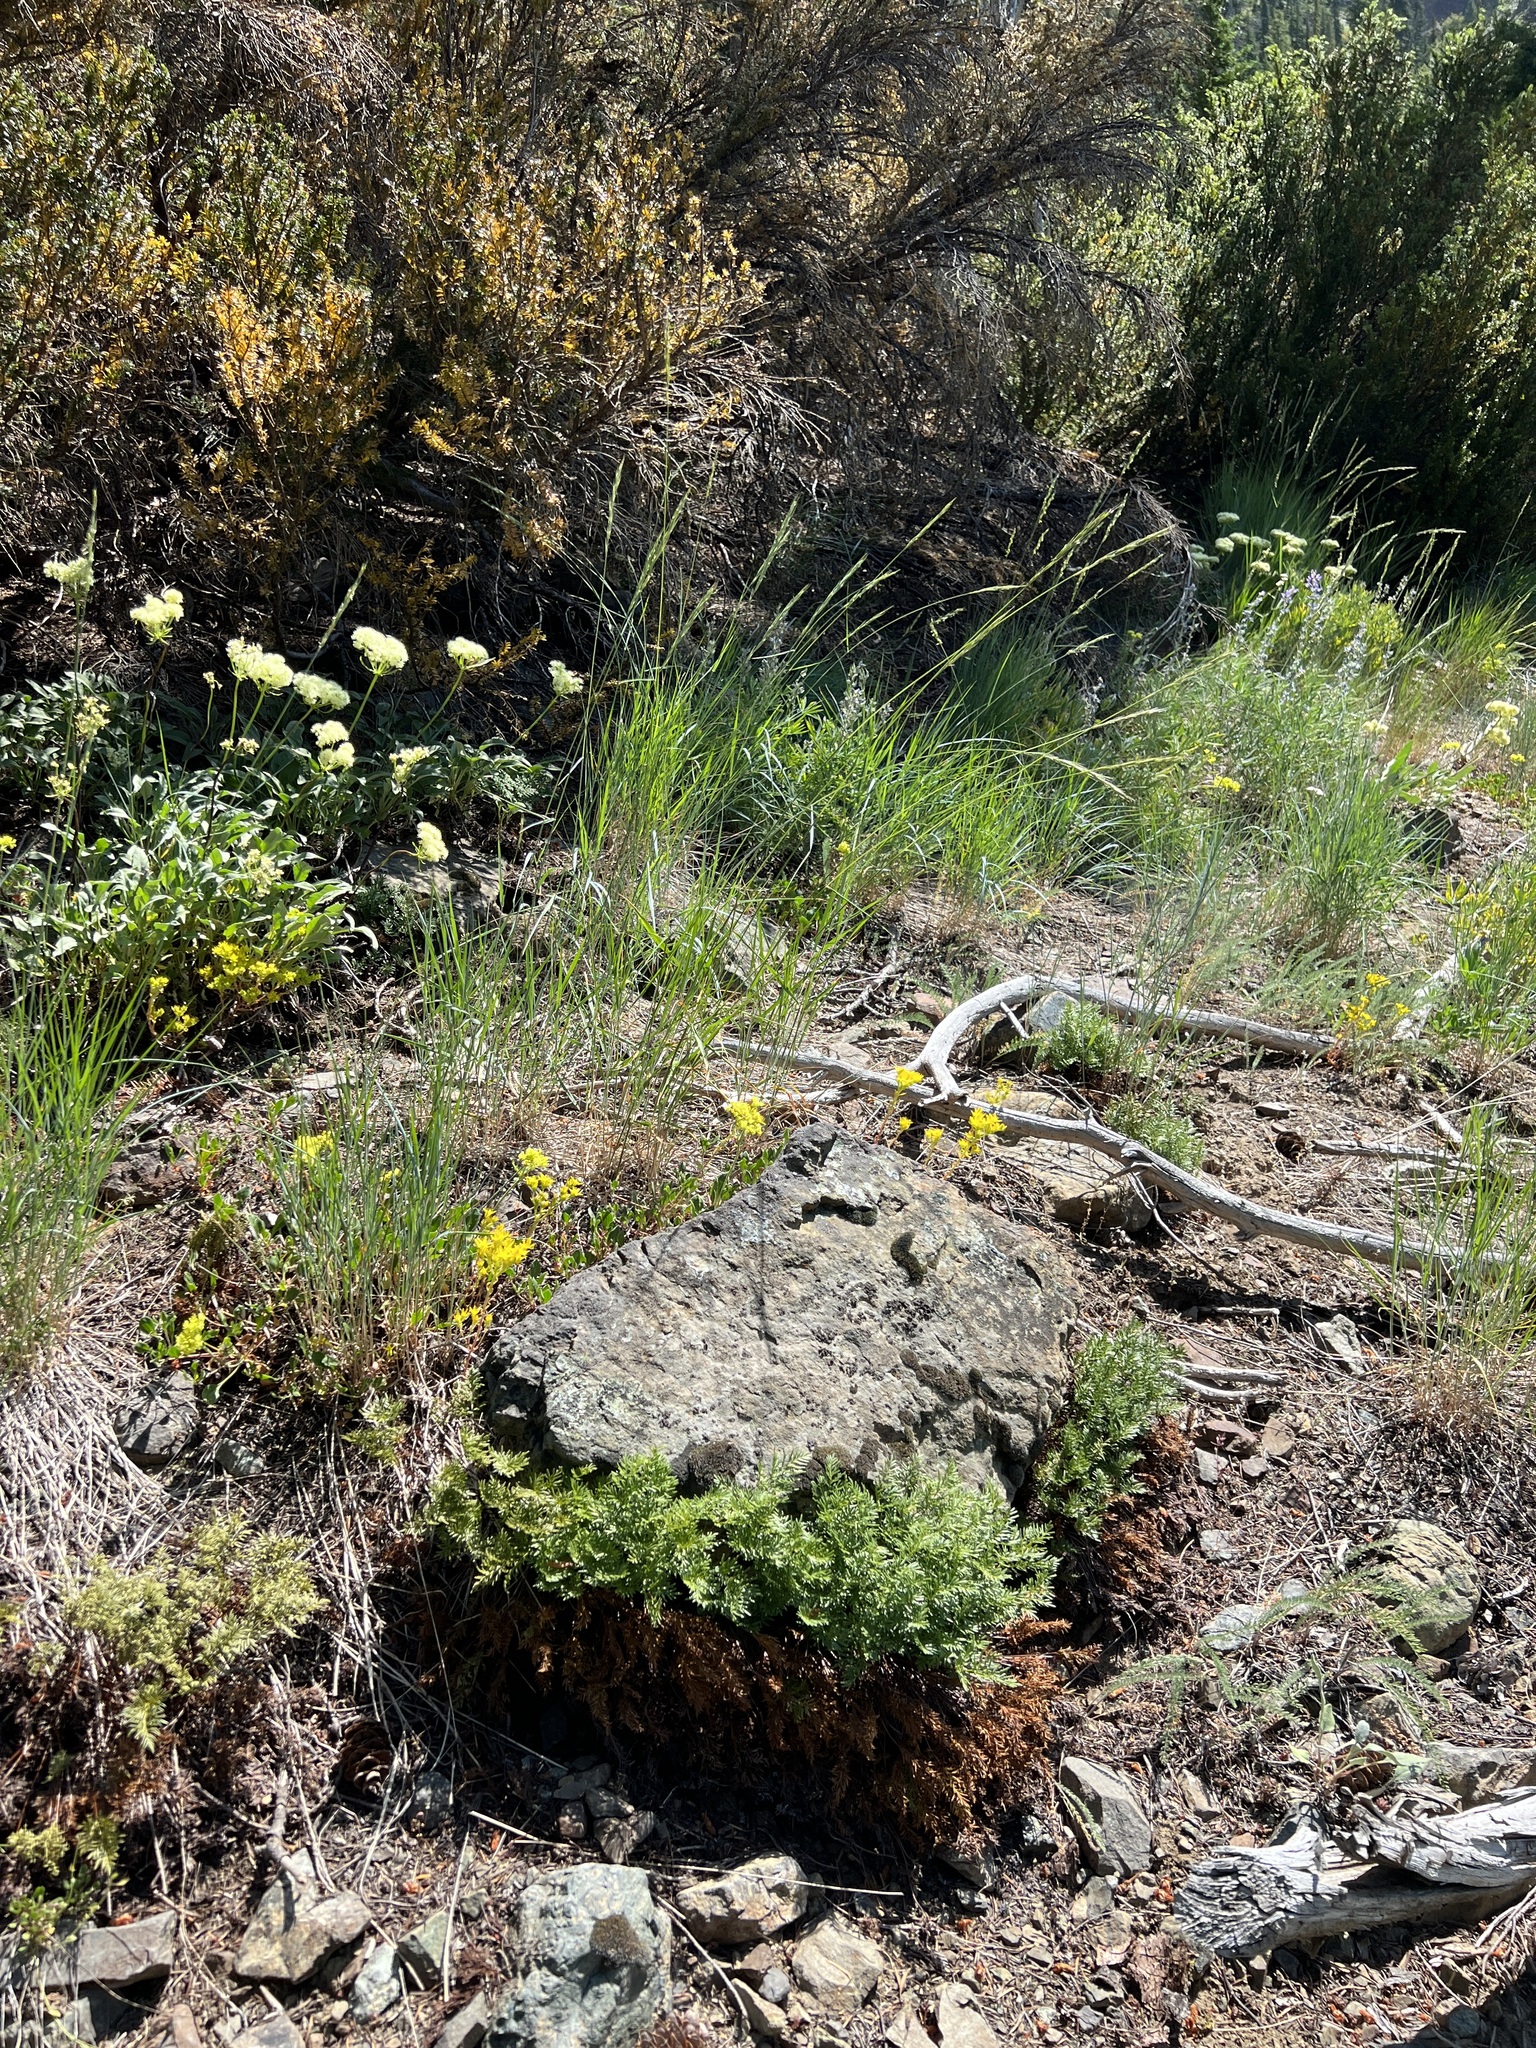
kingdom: Plantae
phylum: Tracheophyta
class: Polypodiopsida
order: Polypodiales
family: Pteridaceae
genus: Aspidotis
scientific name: Aspidotis densa
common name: Indian's dream
